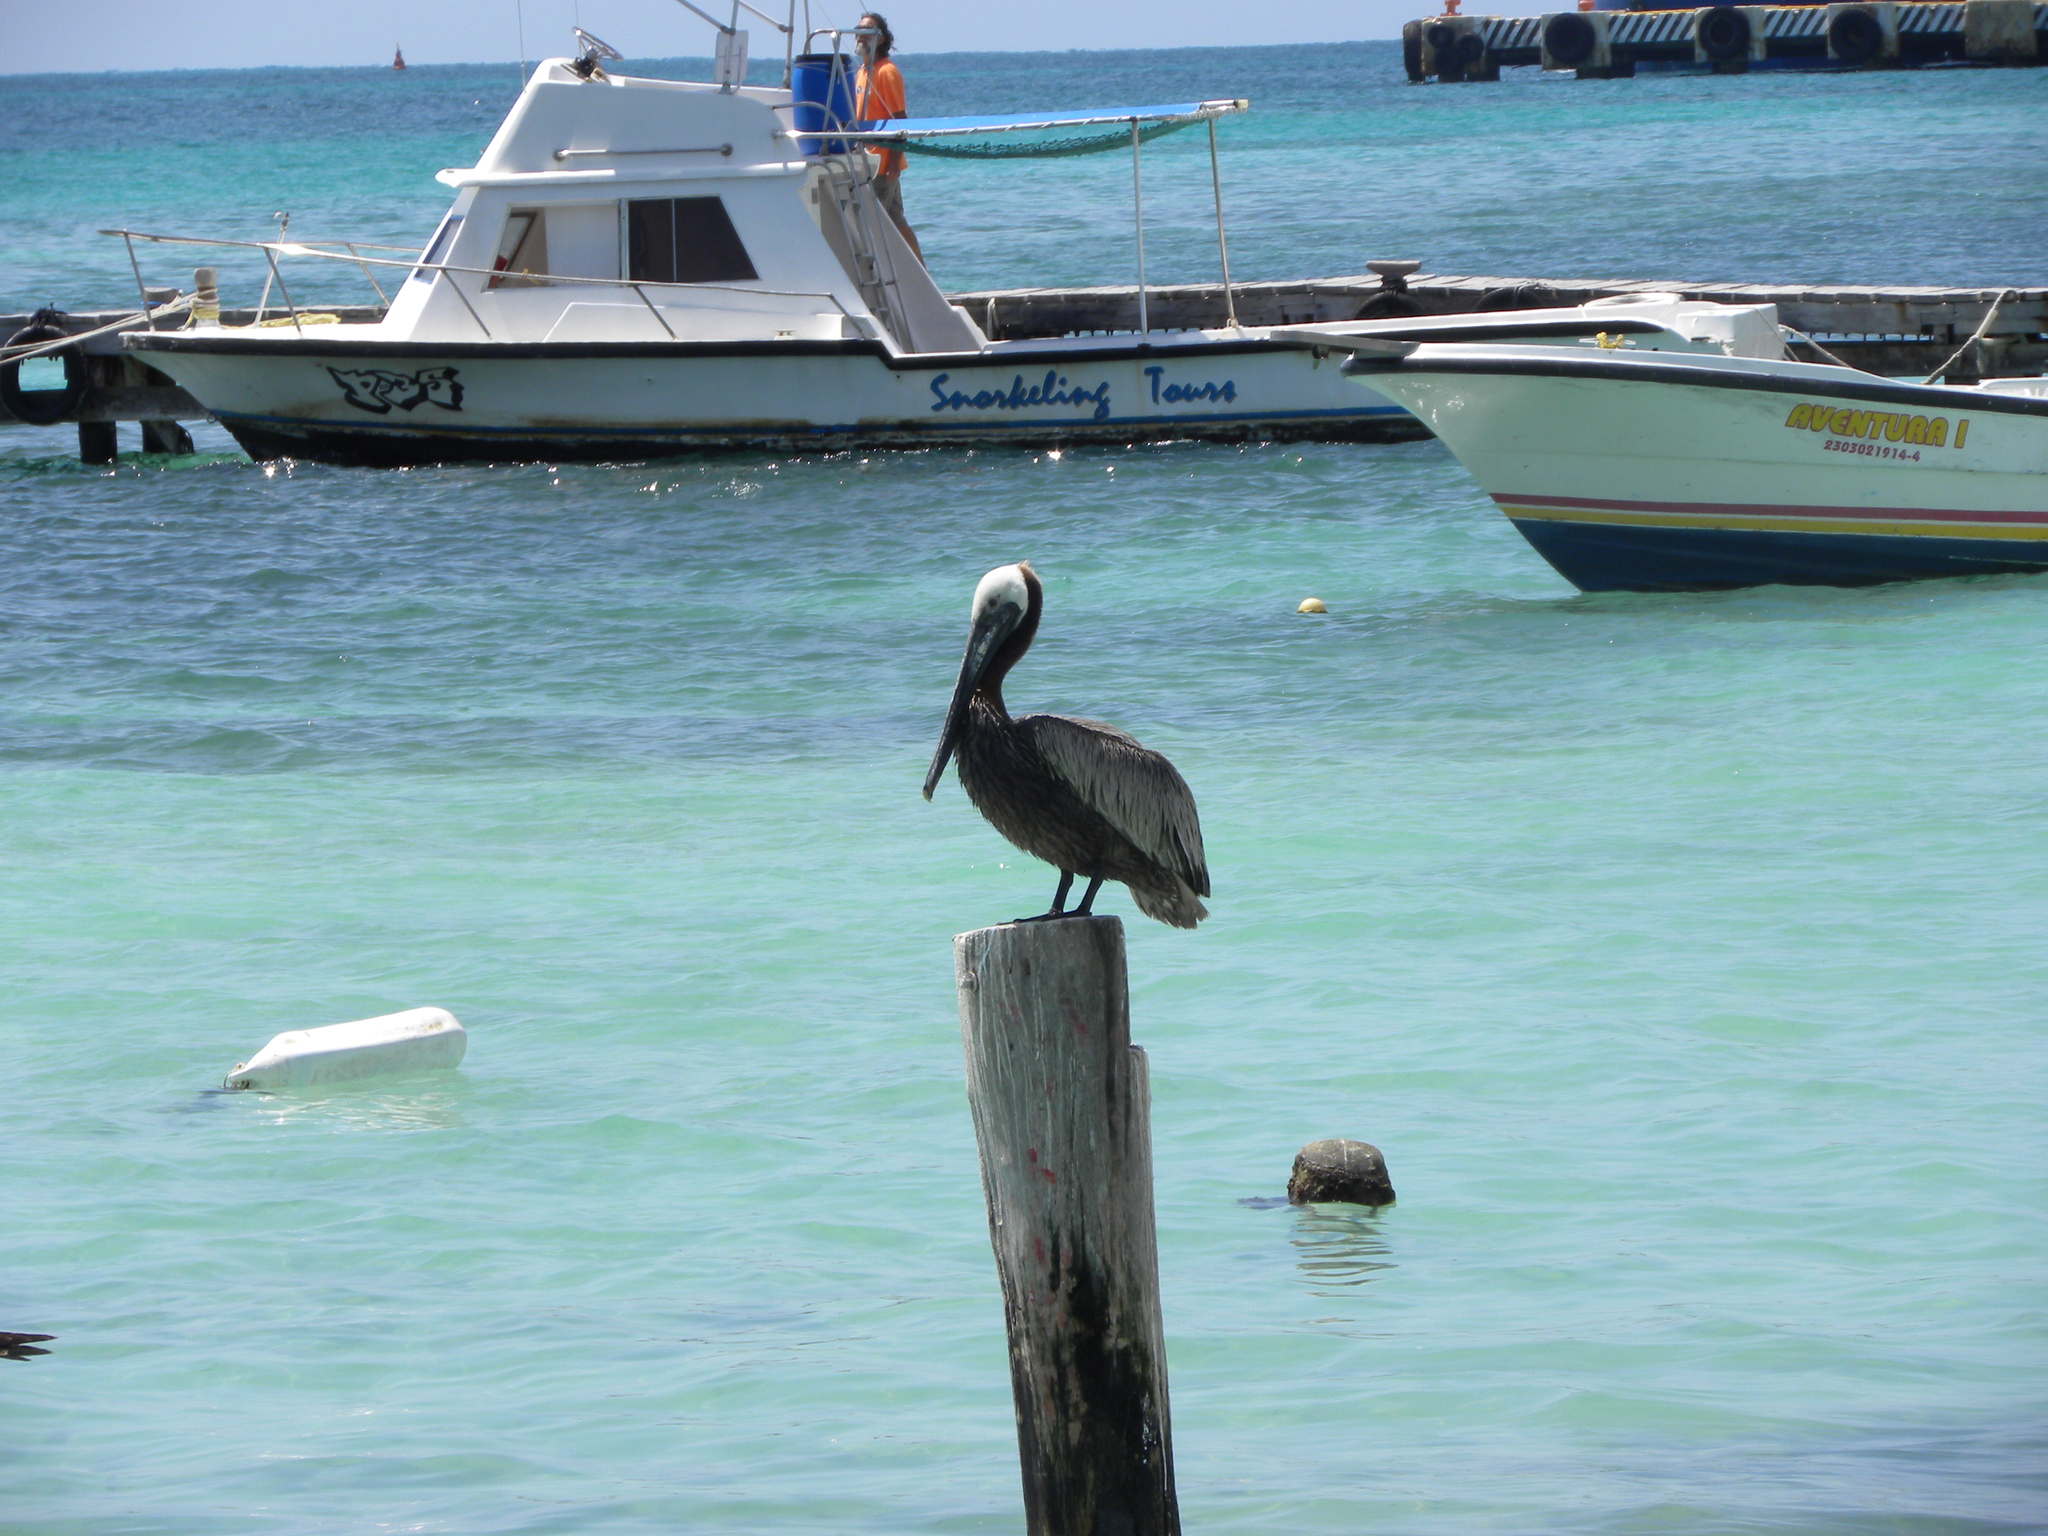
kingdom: Animalia
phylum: Chordata
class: Aves
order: Pelecaniformes
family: Pelecanidae
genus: Pelecanus
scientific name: Pelecanus occidentalis
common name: Brown pelican
